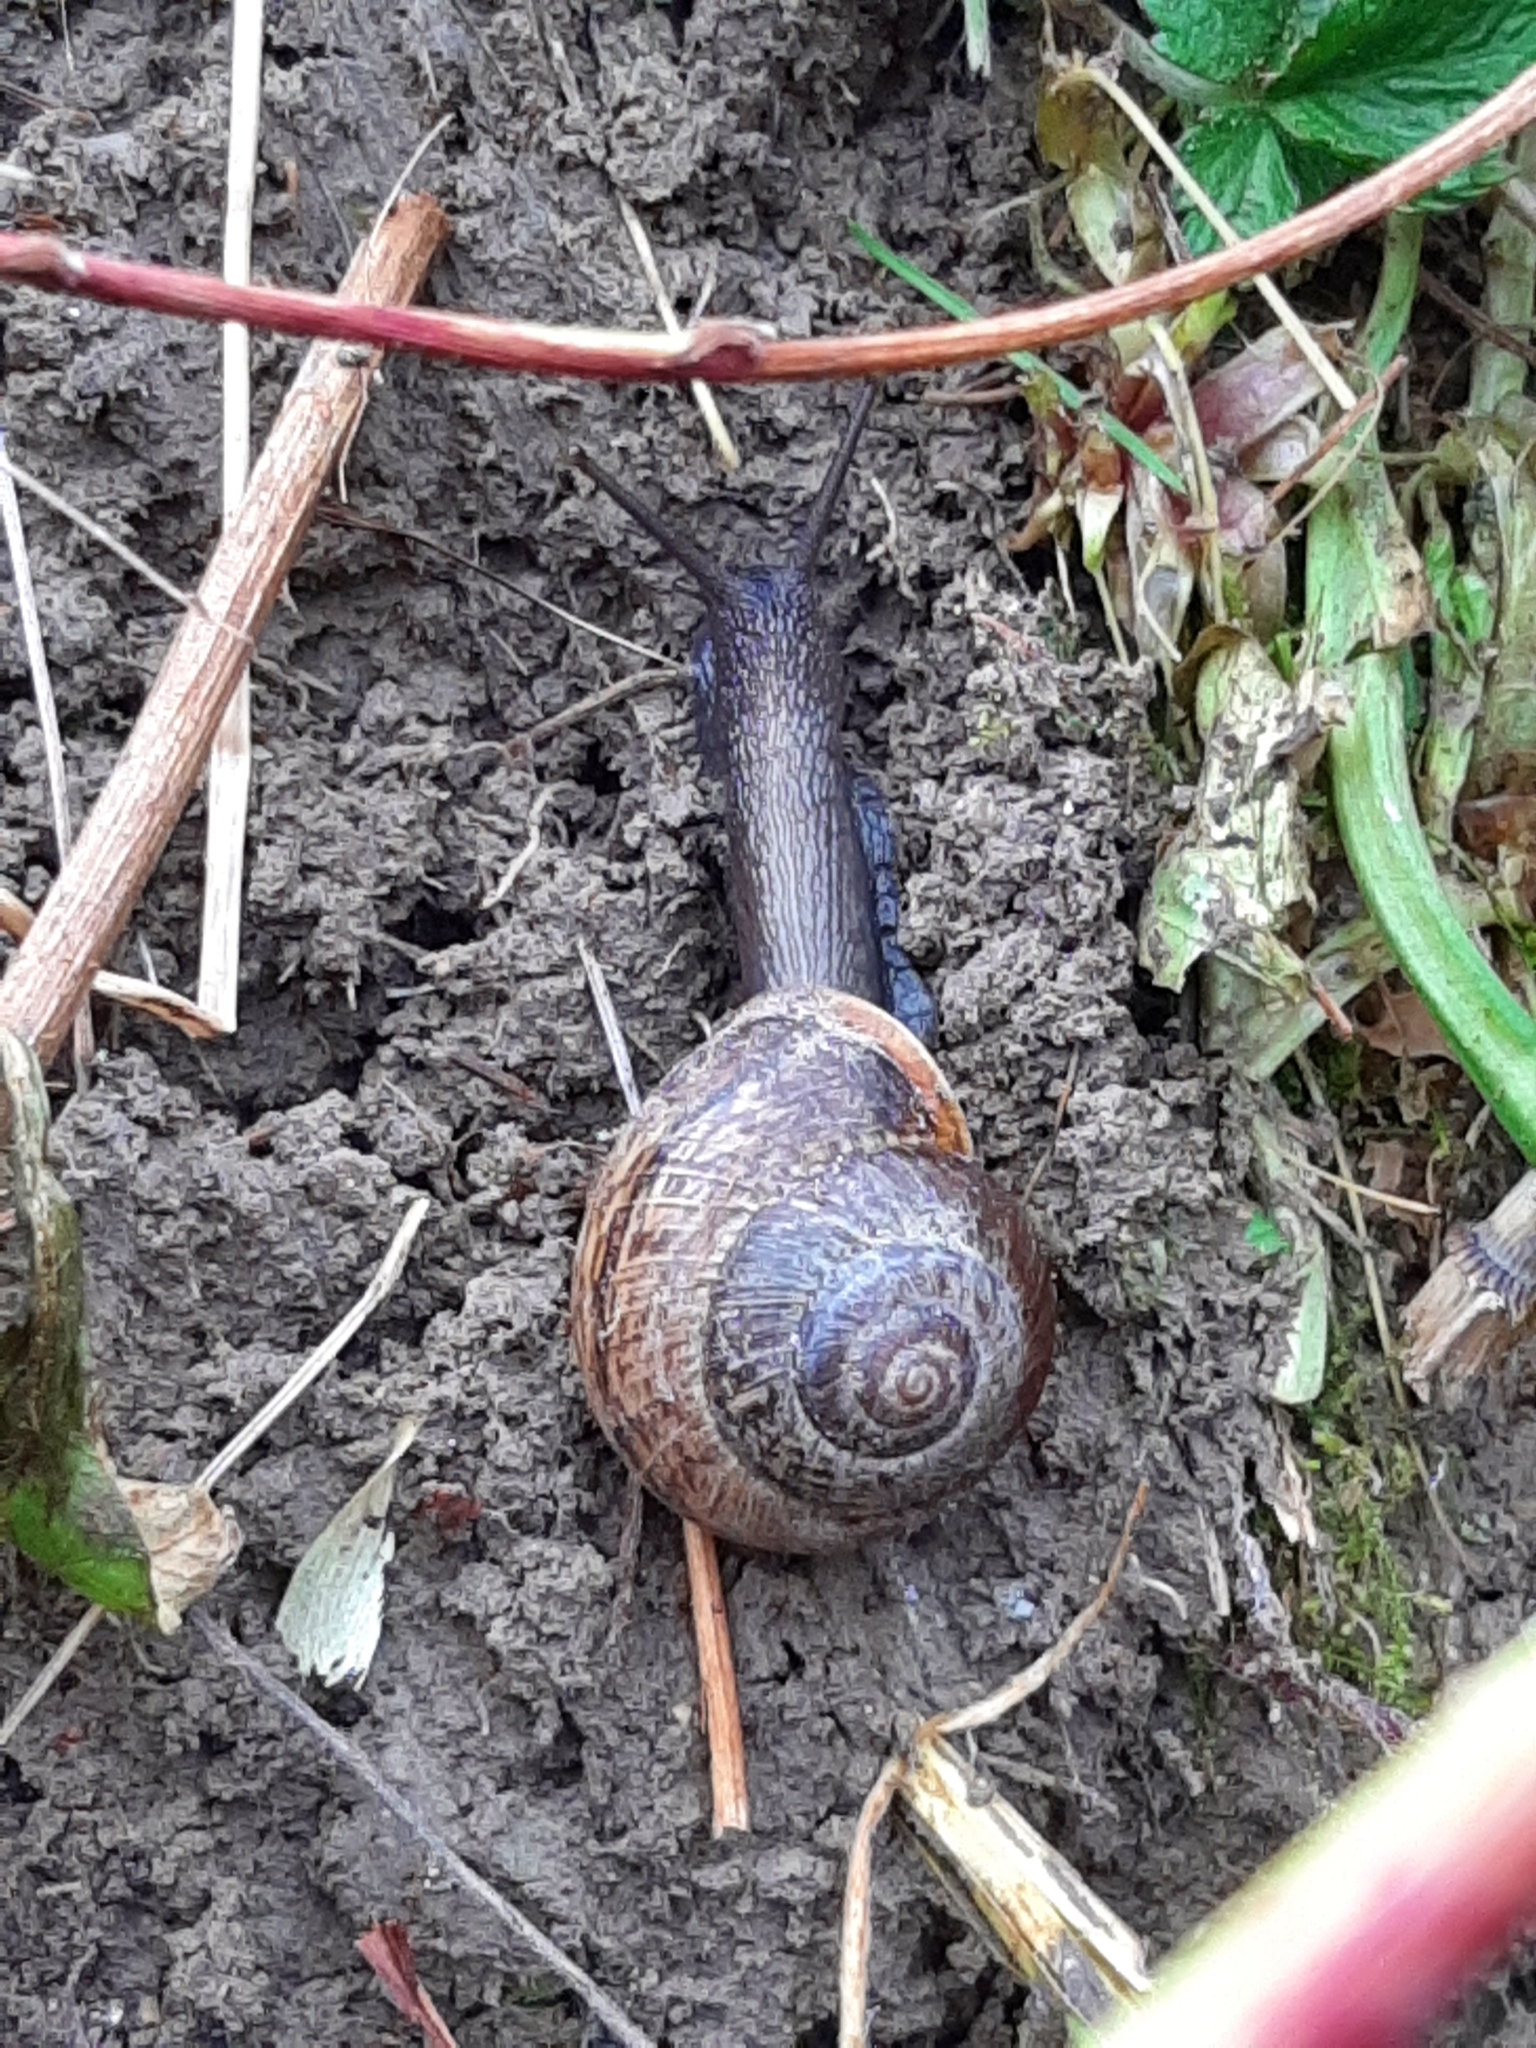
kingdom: Animalia
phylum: Mollusca
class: Gastropoda
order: Stylommatophora
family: Helicidae
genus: Arianta
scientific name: Arianta arbustorum
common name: Copse snail
